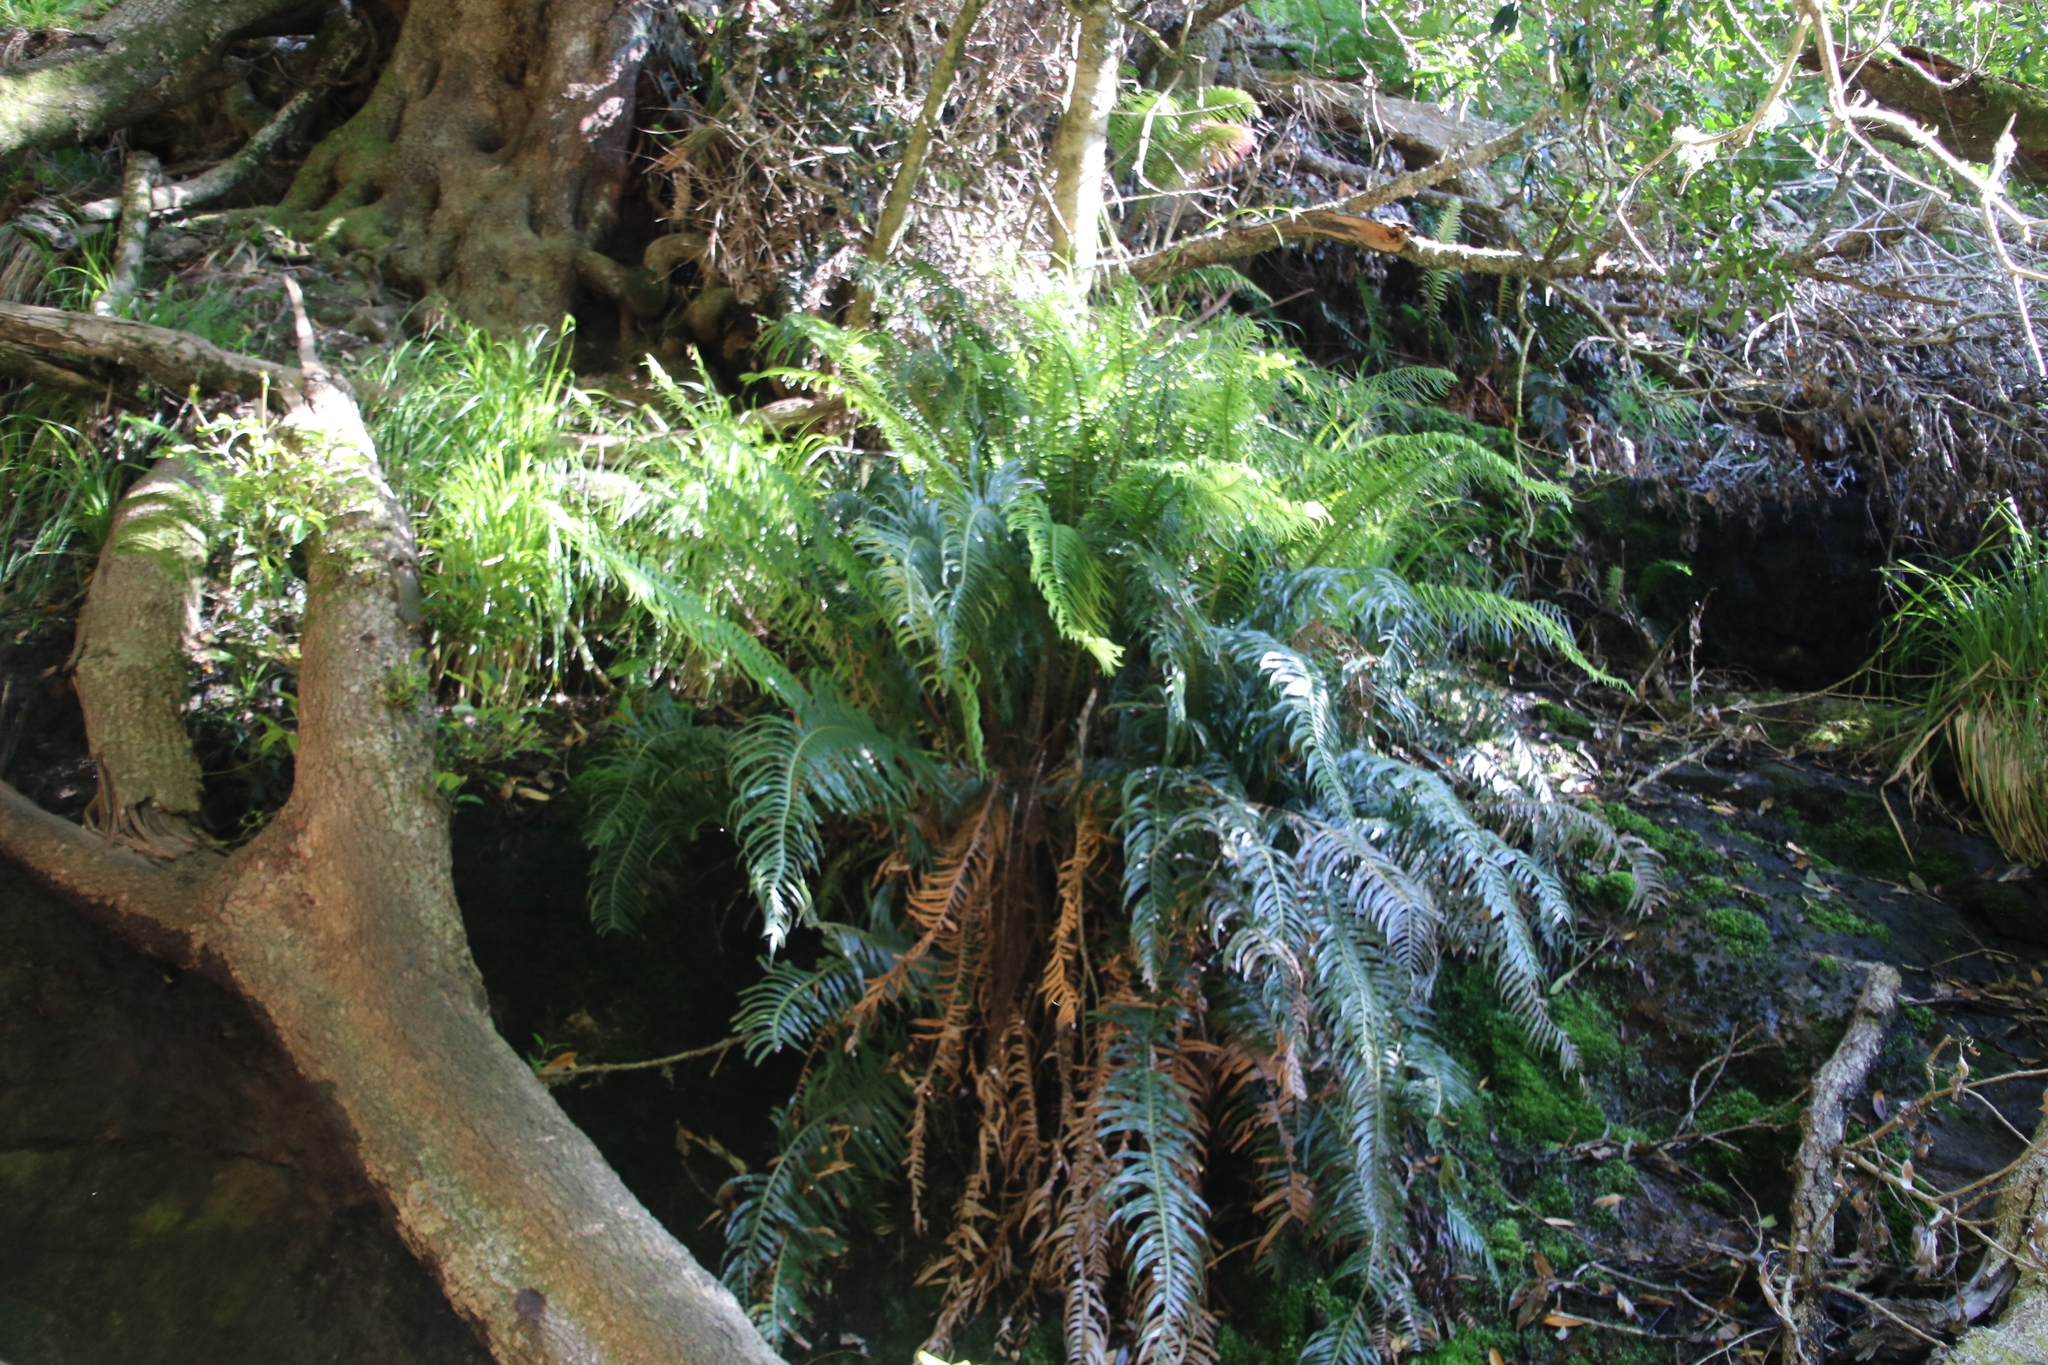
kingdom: Plantae
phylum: Tracheophyta
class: Polypodiopsida
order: Polypodiales
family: Blechnaceae
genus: Lomaridium
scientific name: Lomaridium attenuatum
